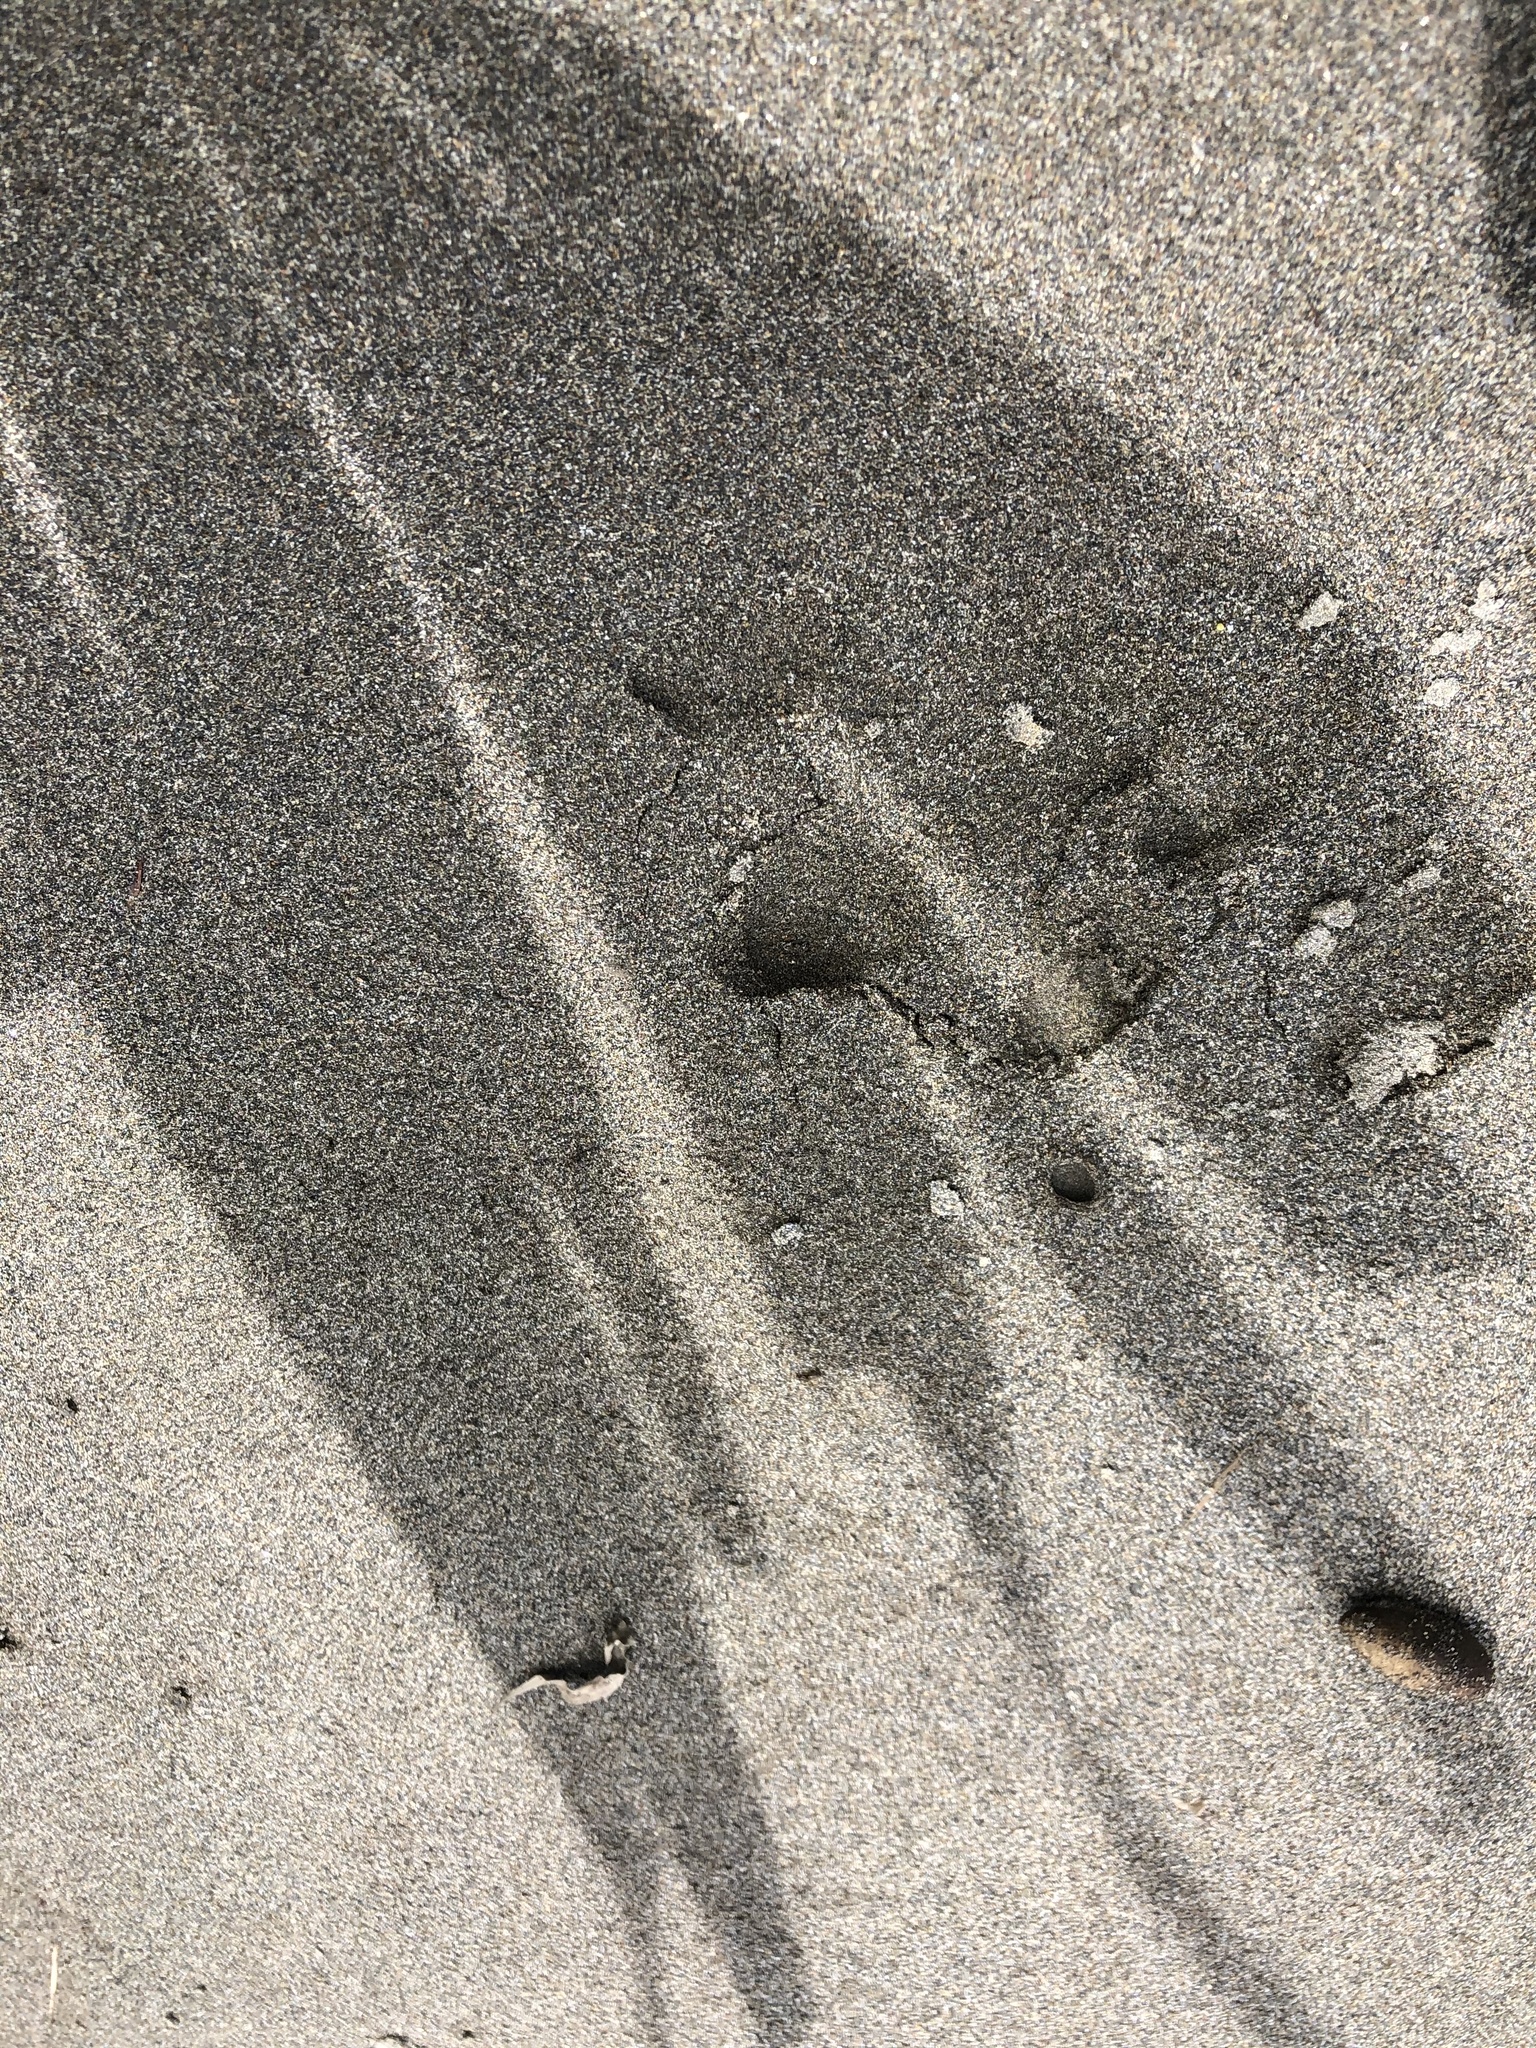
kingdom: Animalia
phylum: Chordata
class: Mammalia
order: Rodentia
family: Caviidae
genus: Hydrochoerus
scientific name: Hydrochoerus hydrochaeris
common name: Capybara
